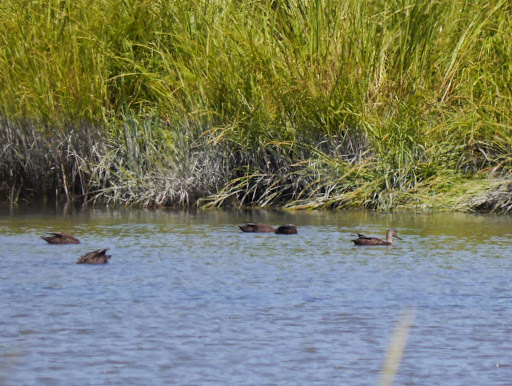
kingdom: Animalia
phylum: Chordata
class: Aves
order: Anseriformes
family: Anatidae
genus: Anas
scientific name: Anas rubripes
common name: American black duck
